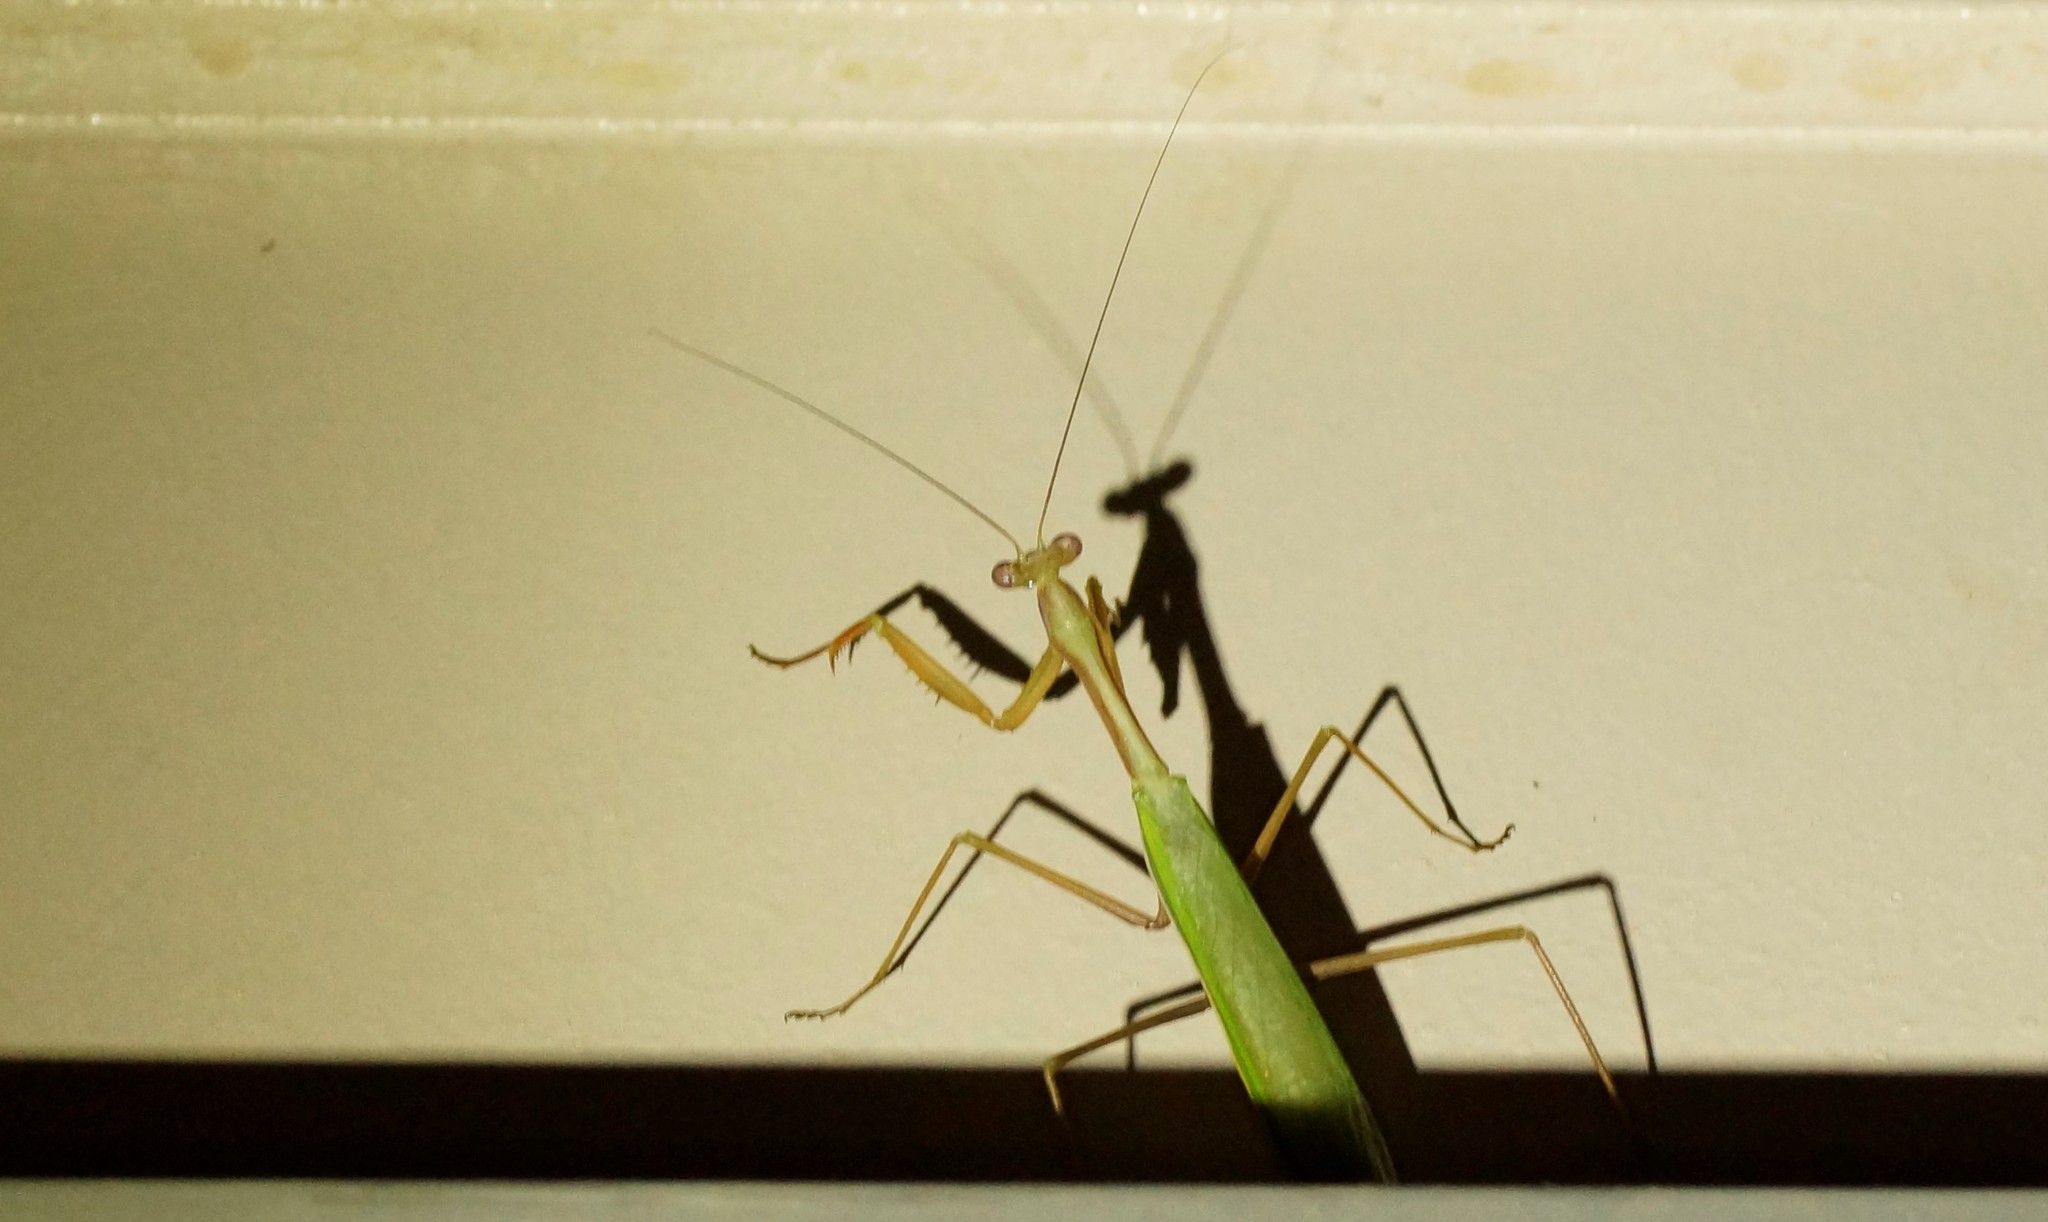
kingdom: Animalia
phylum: Arthropoda
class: Insecta
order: Mantodea
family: Mantidae
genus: Pseudomantis
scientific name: Pseudomantis albofimbriata
